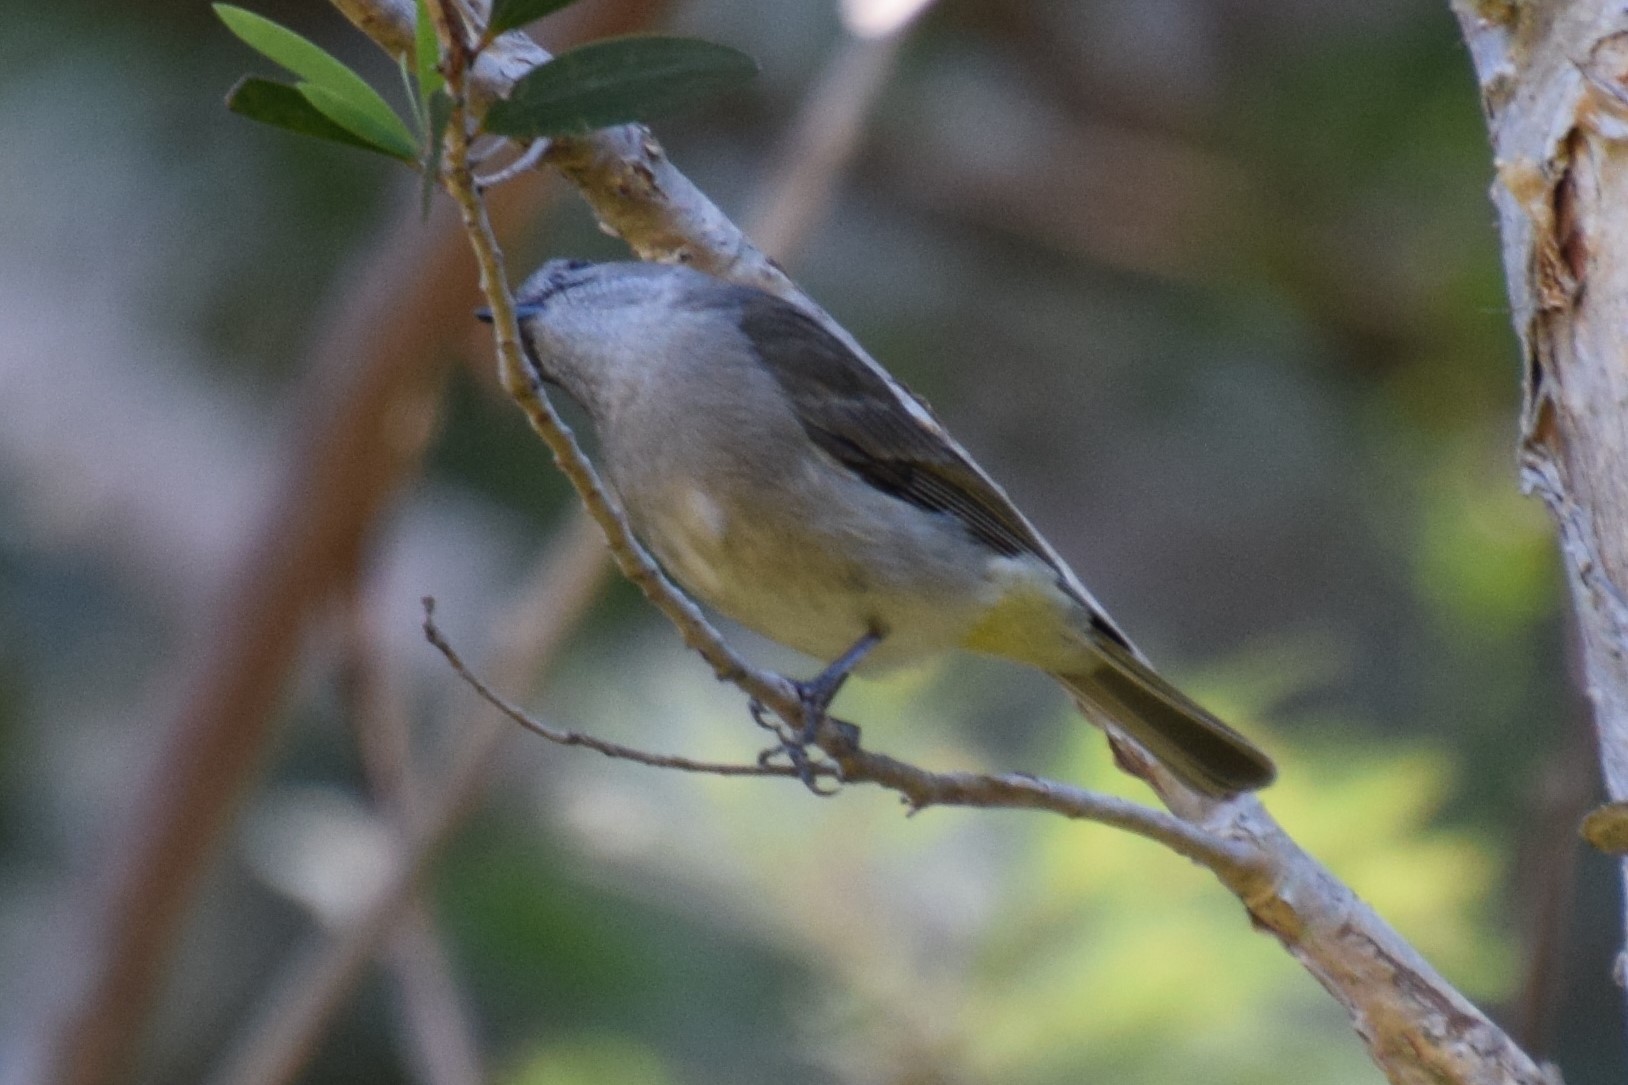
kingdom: Animalia
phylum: Chordata
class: Aves
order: Passeriformes
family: Pachycephalidae
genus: Pachycephala
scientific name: Pachycephala pectoralis
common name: Australian golden whistler
